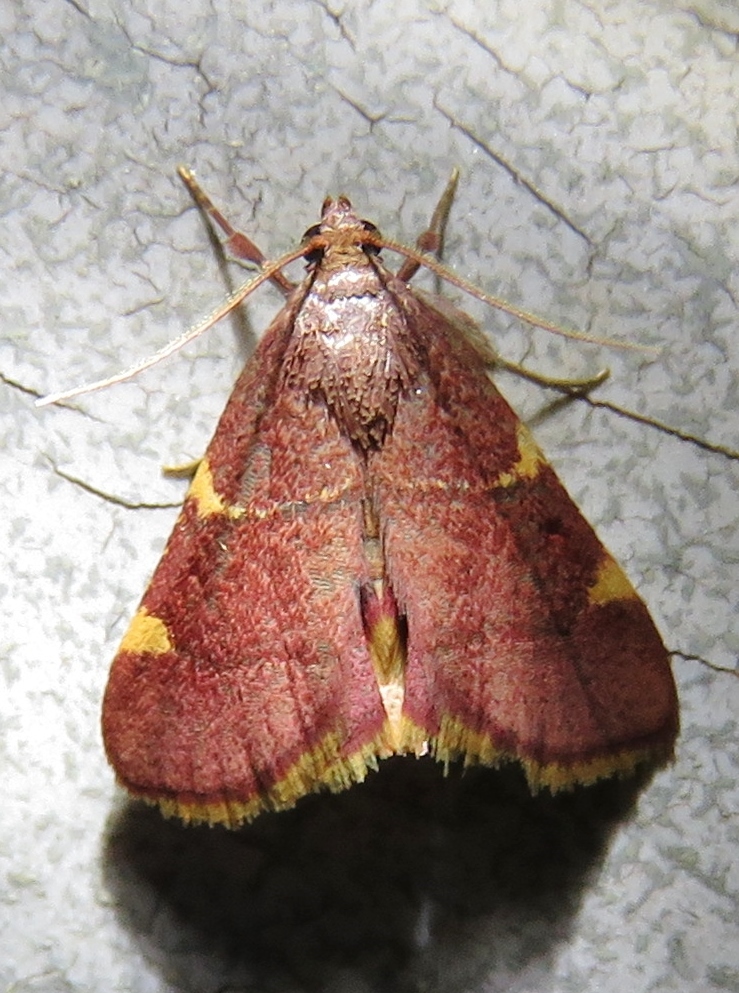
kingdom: Animalia
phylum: Arthropoda
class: Insecta
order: Lepidoptera
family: Pyralidae
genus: Hypsopygia
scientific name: Hypsopygia olinalis
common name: Yellow-fringed dolichomia moth
